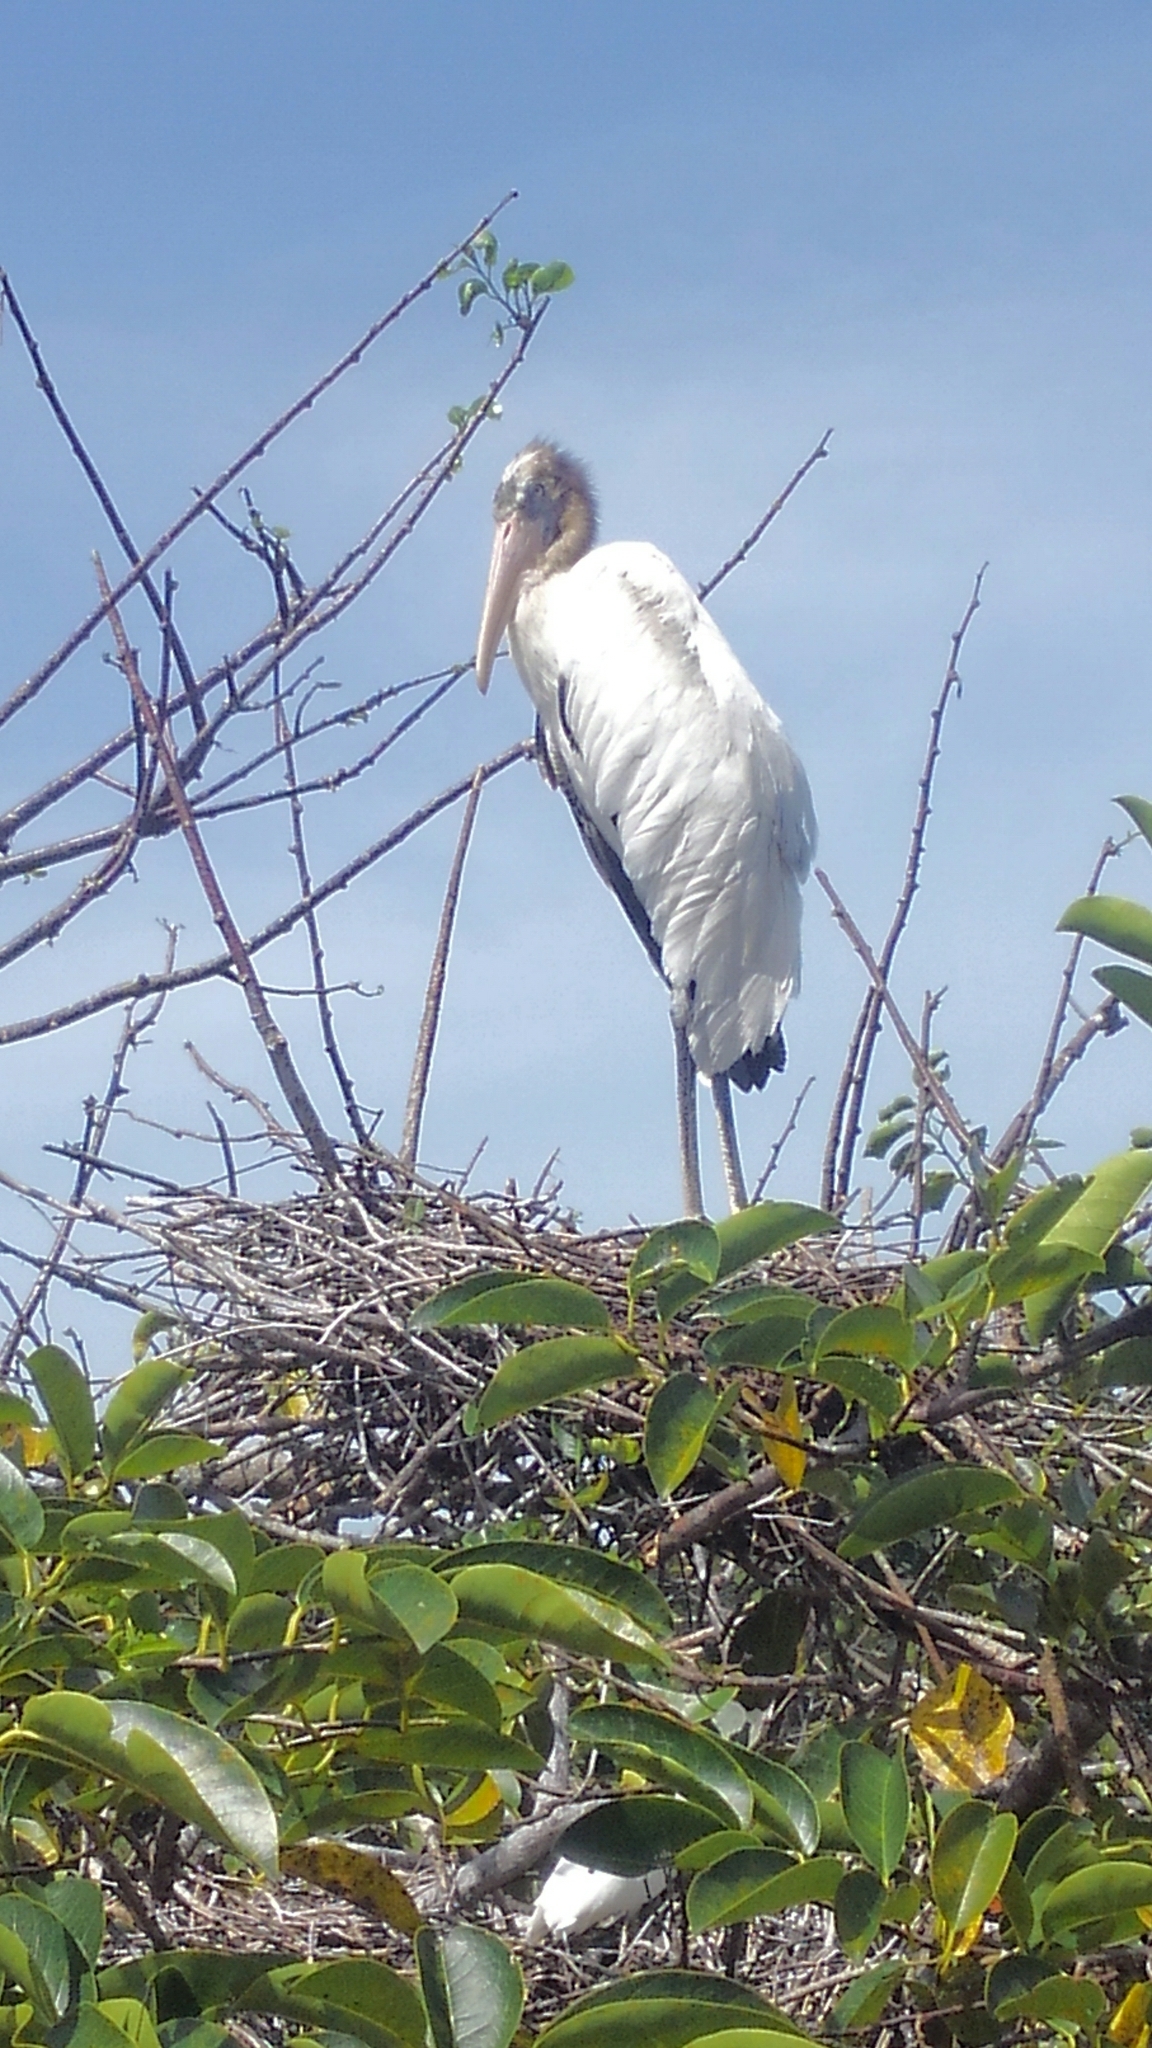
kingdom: Animalia
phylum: Chordata
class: Aves
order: Ciconiiformes
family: Ciconiidae
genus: Mycteria
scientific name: Mycteria americana
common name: Wood stork
